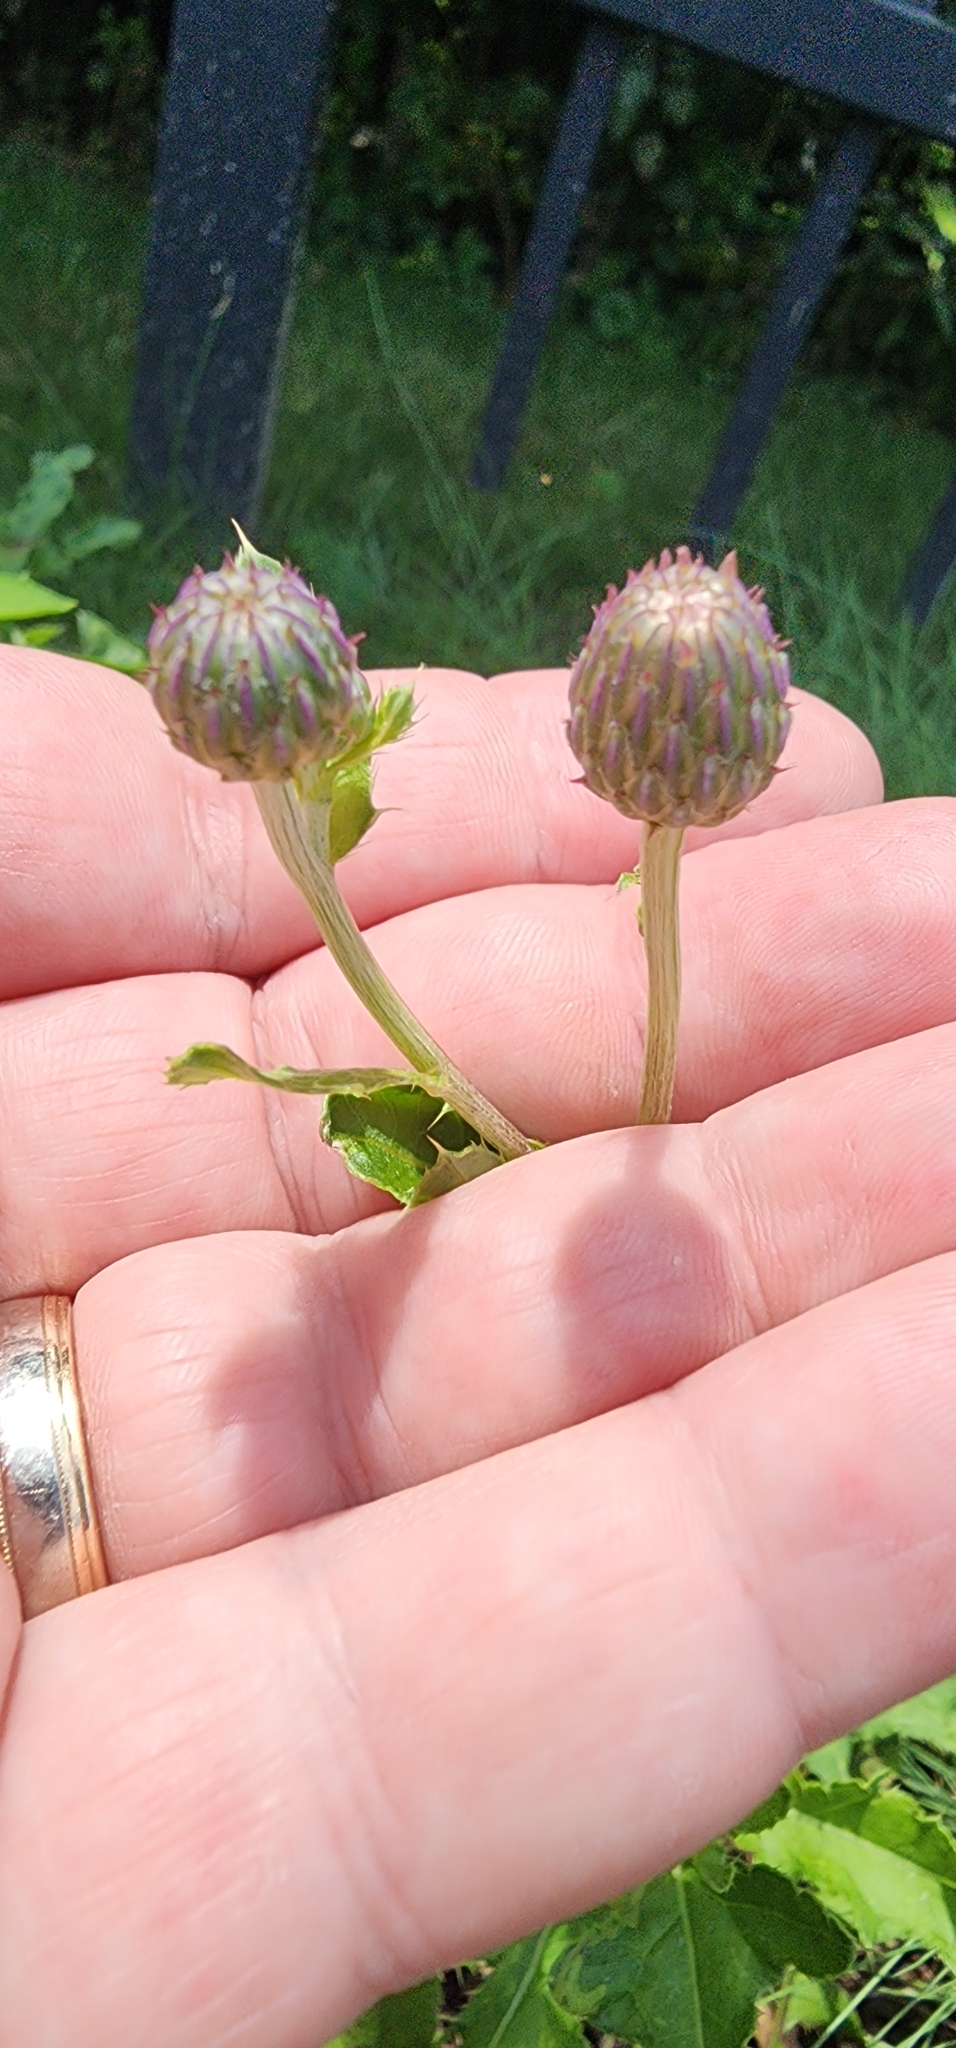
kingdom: Plantae
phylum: Tracheophyta
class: Magnoliopsida
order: Asterales
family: Asteraceae
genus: Cirsium
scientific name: Cirsium arvense
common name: Creeping thistle
